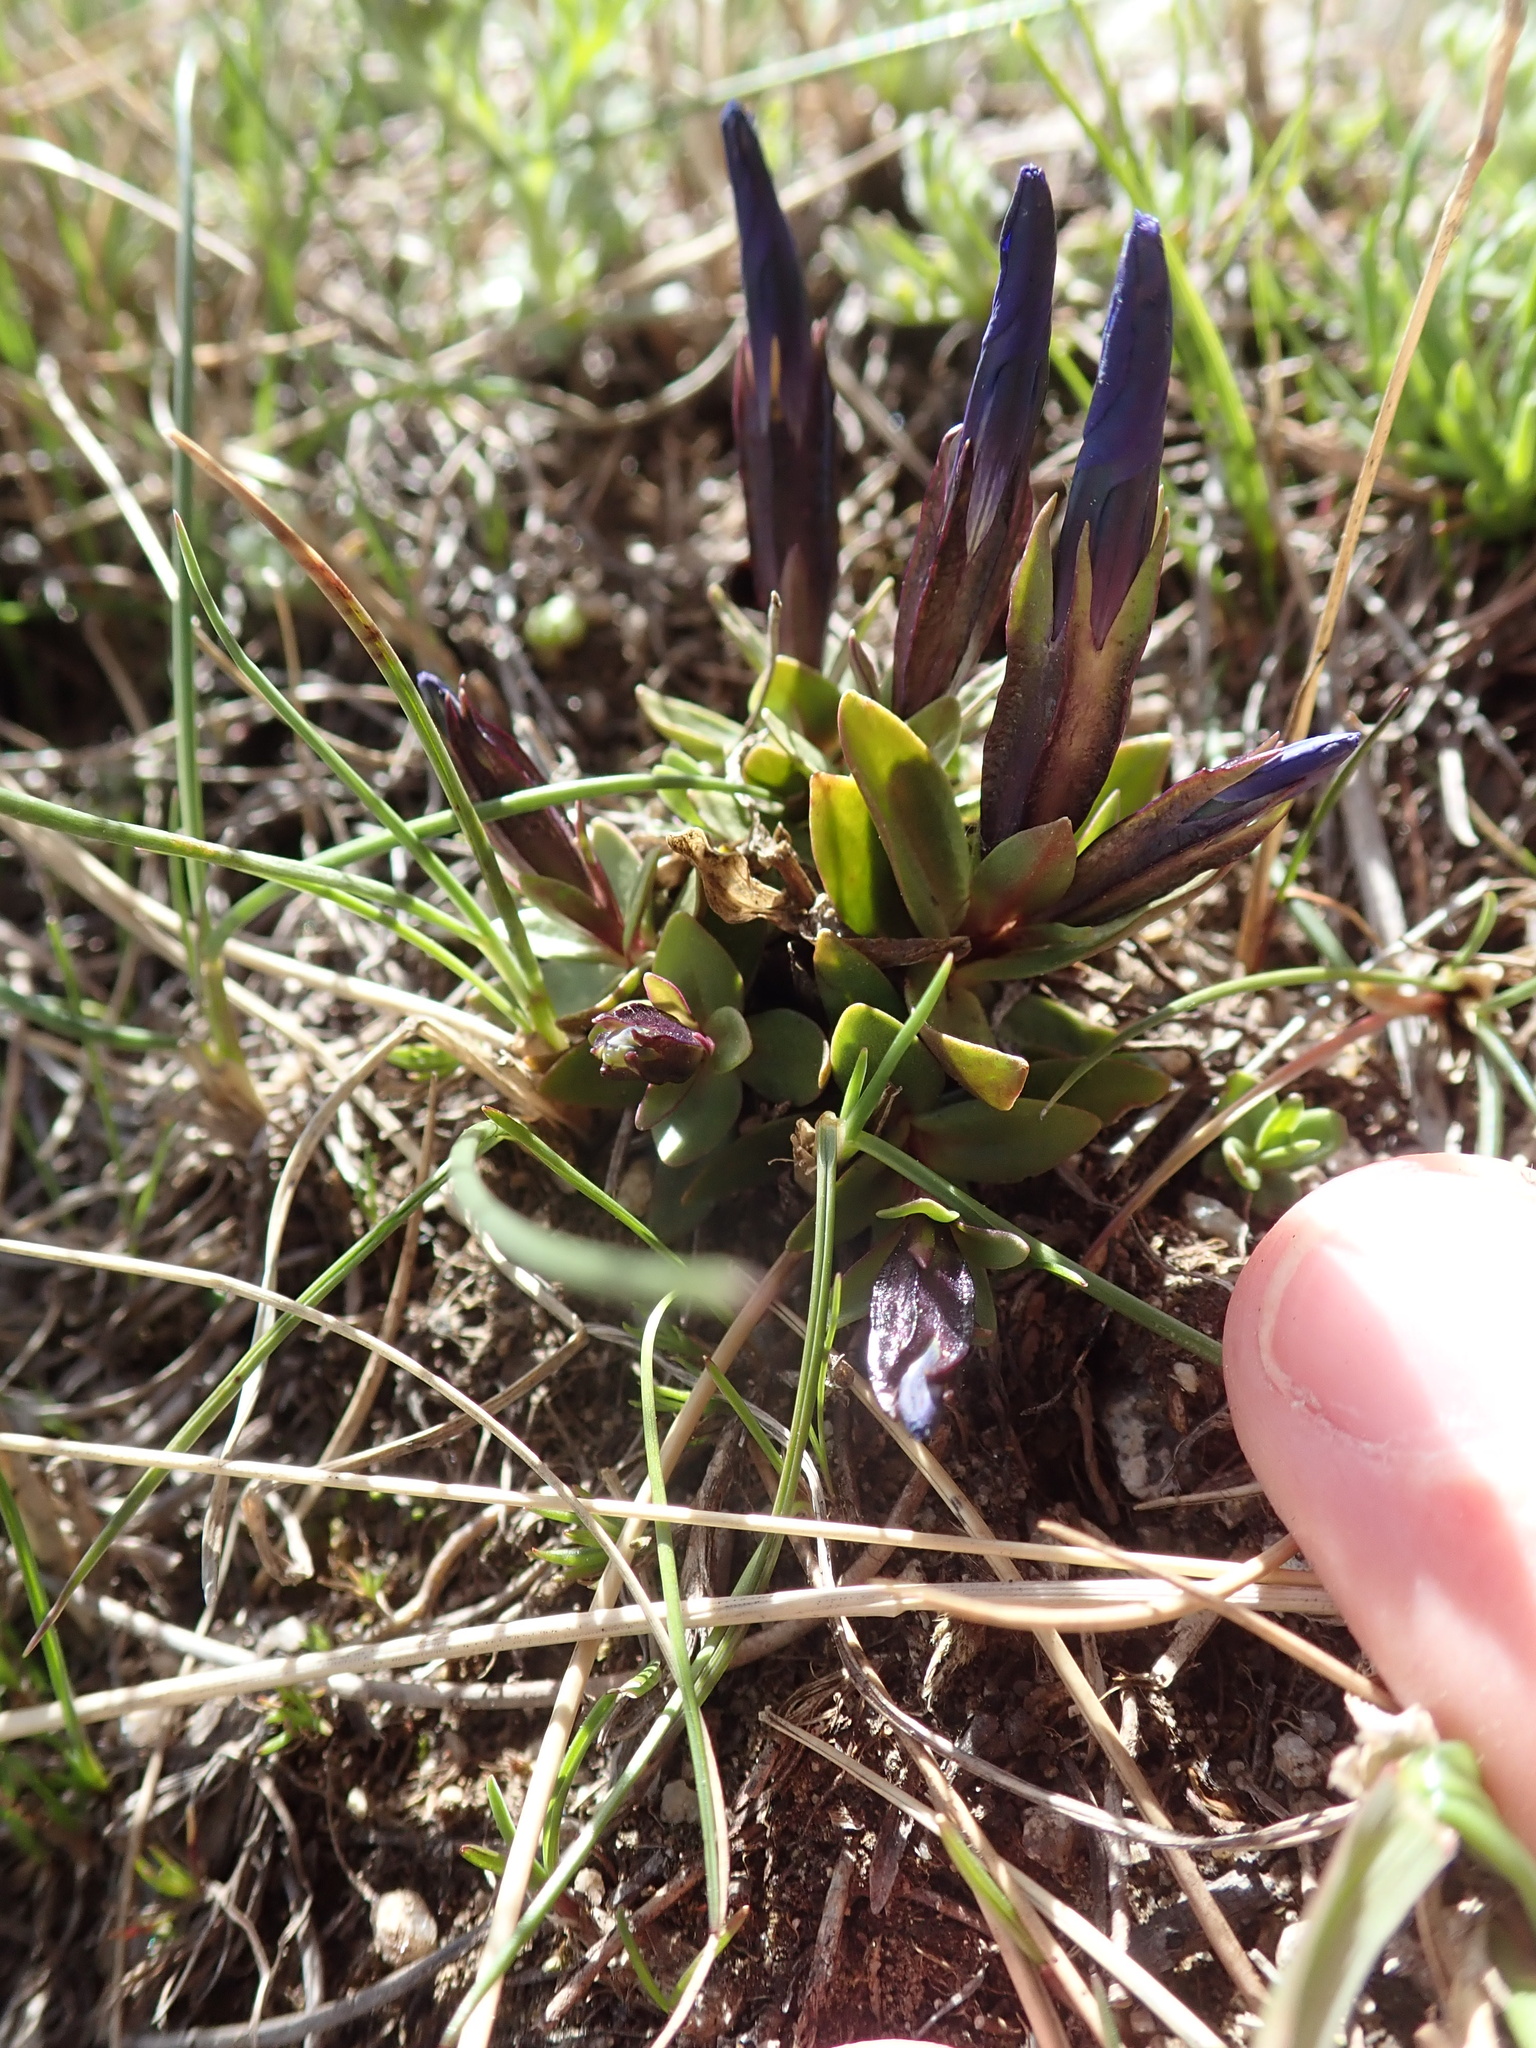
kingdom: Plantae
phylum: Tracheophyta
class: Magnoliopsida
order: Gentianales
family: Gentianaceae
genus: Gentiana
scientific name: Gentiana verna
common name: Spring gentian
